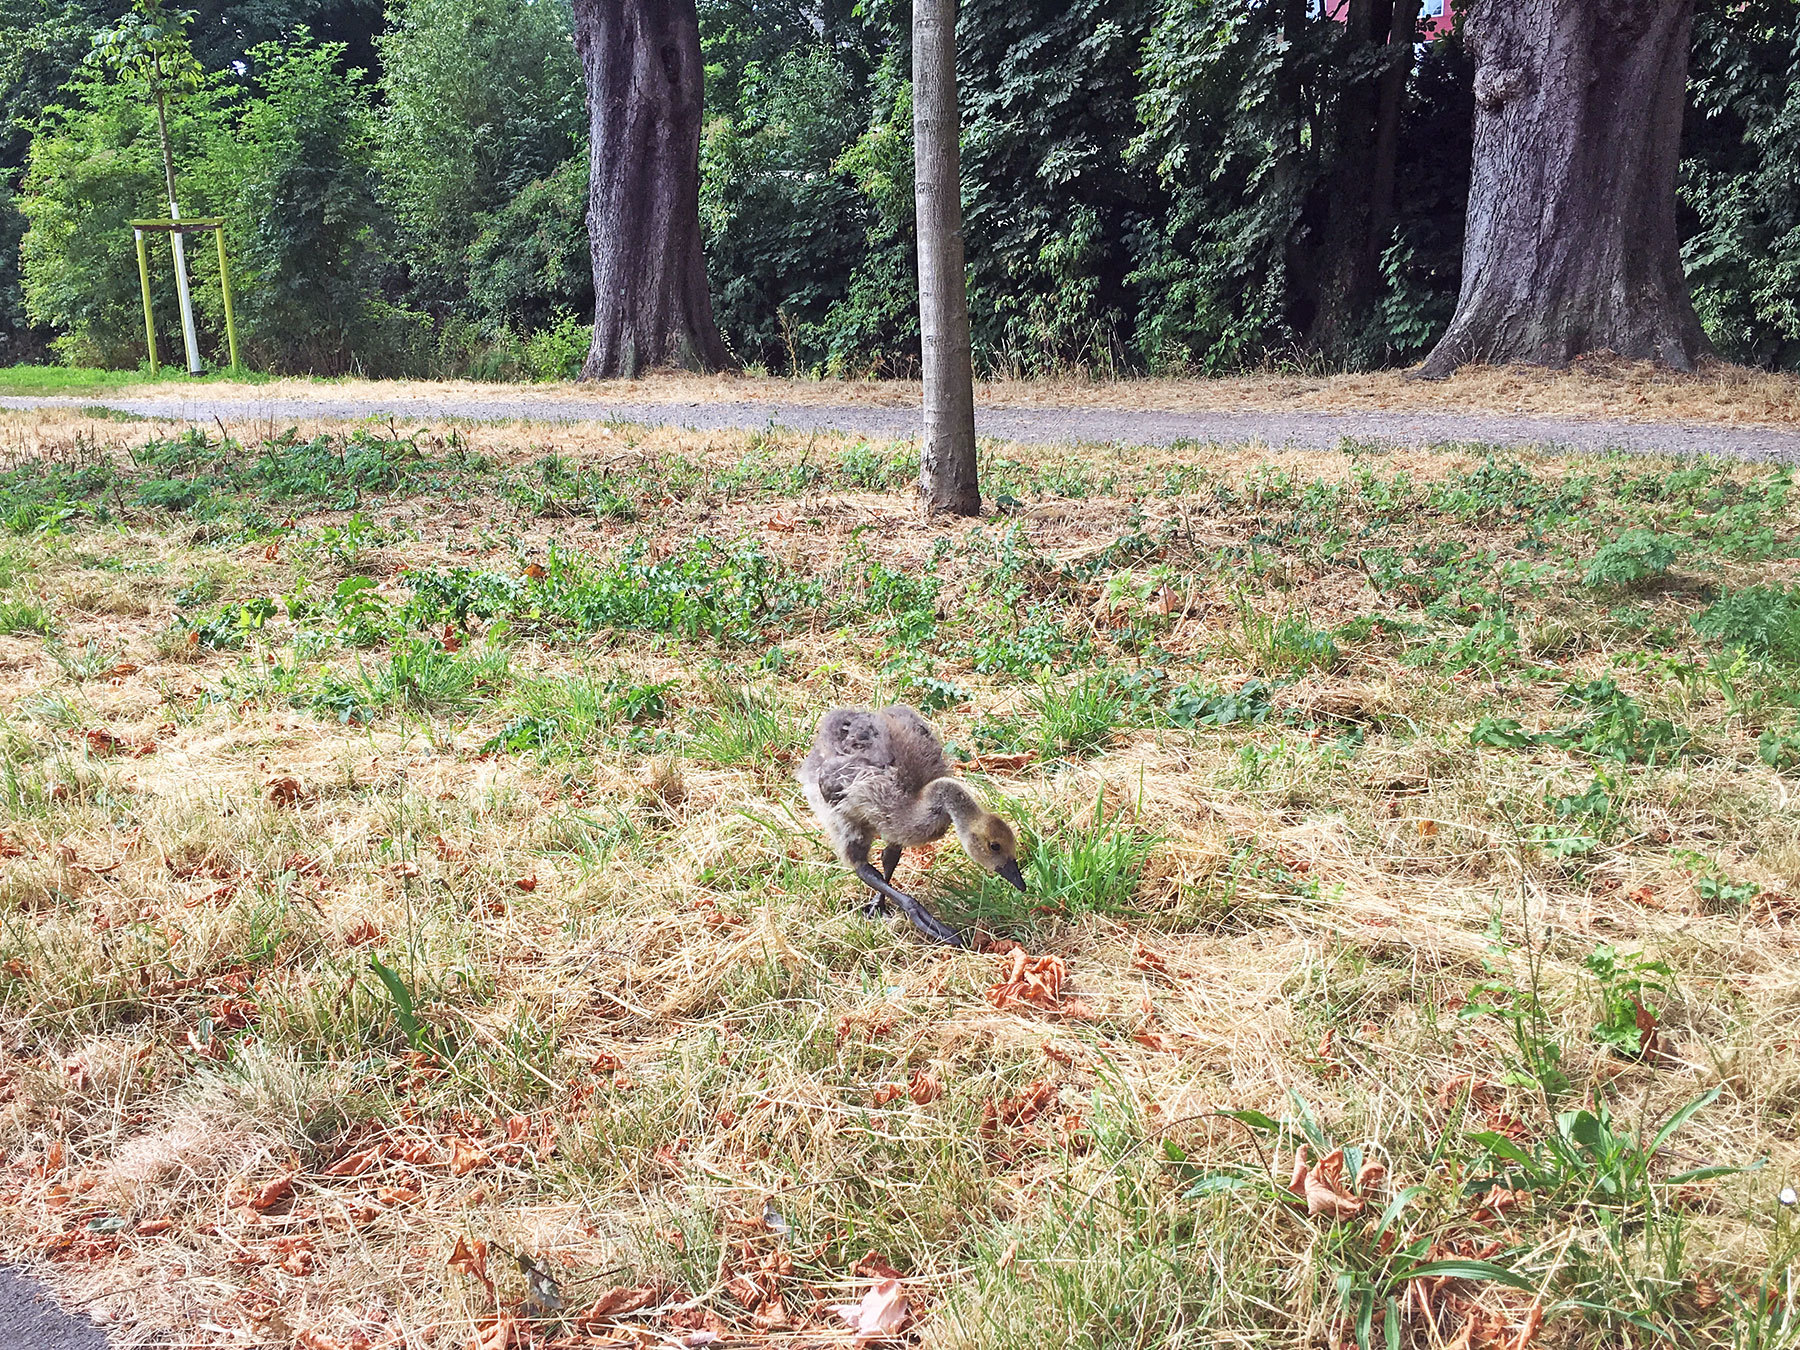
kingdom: Animalia
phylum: Chordata
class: Aves
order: Anseriformes
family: Anatidae
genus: Branta
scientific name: Branta canadensis
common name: Canada goose
